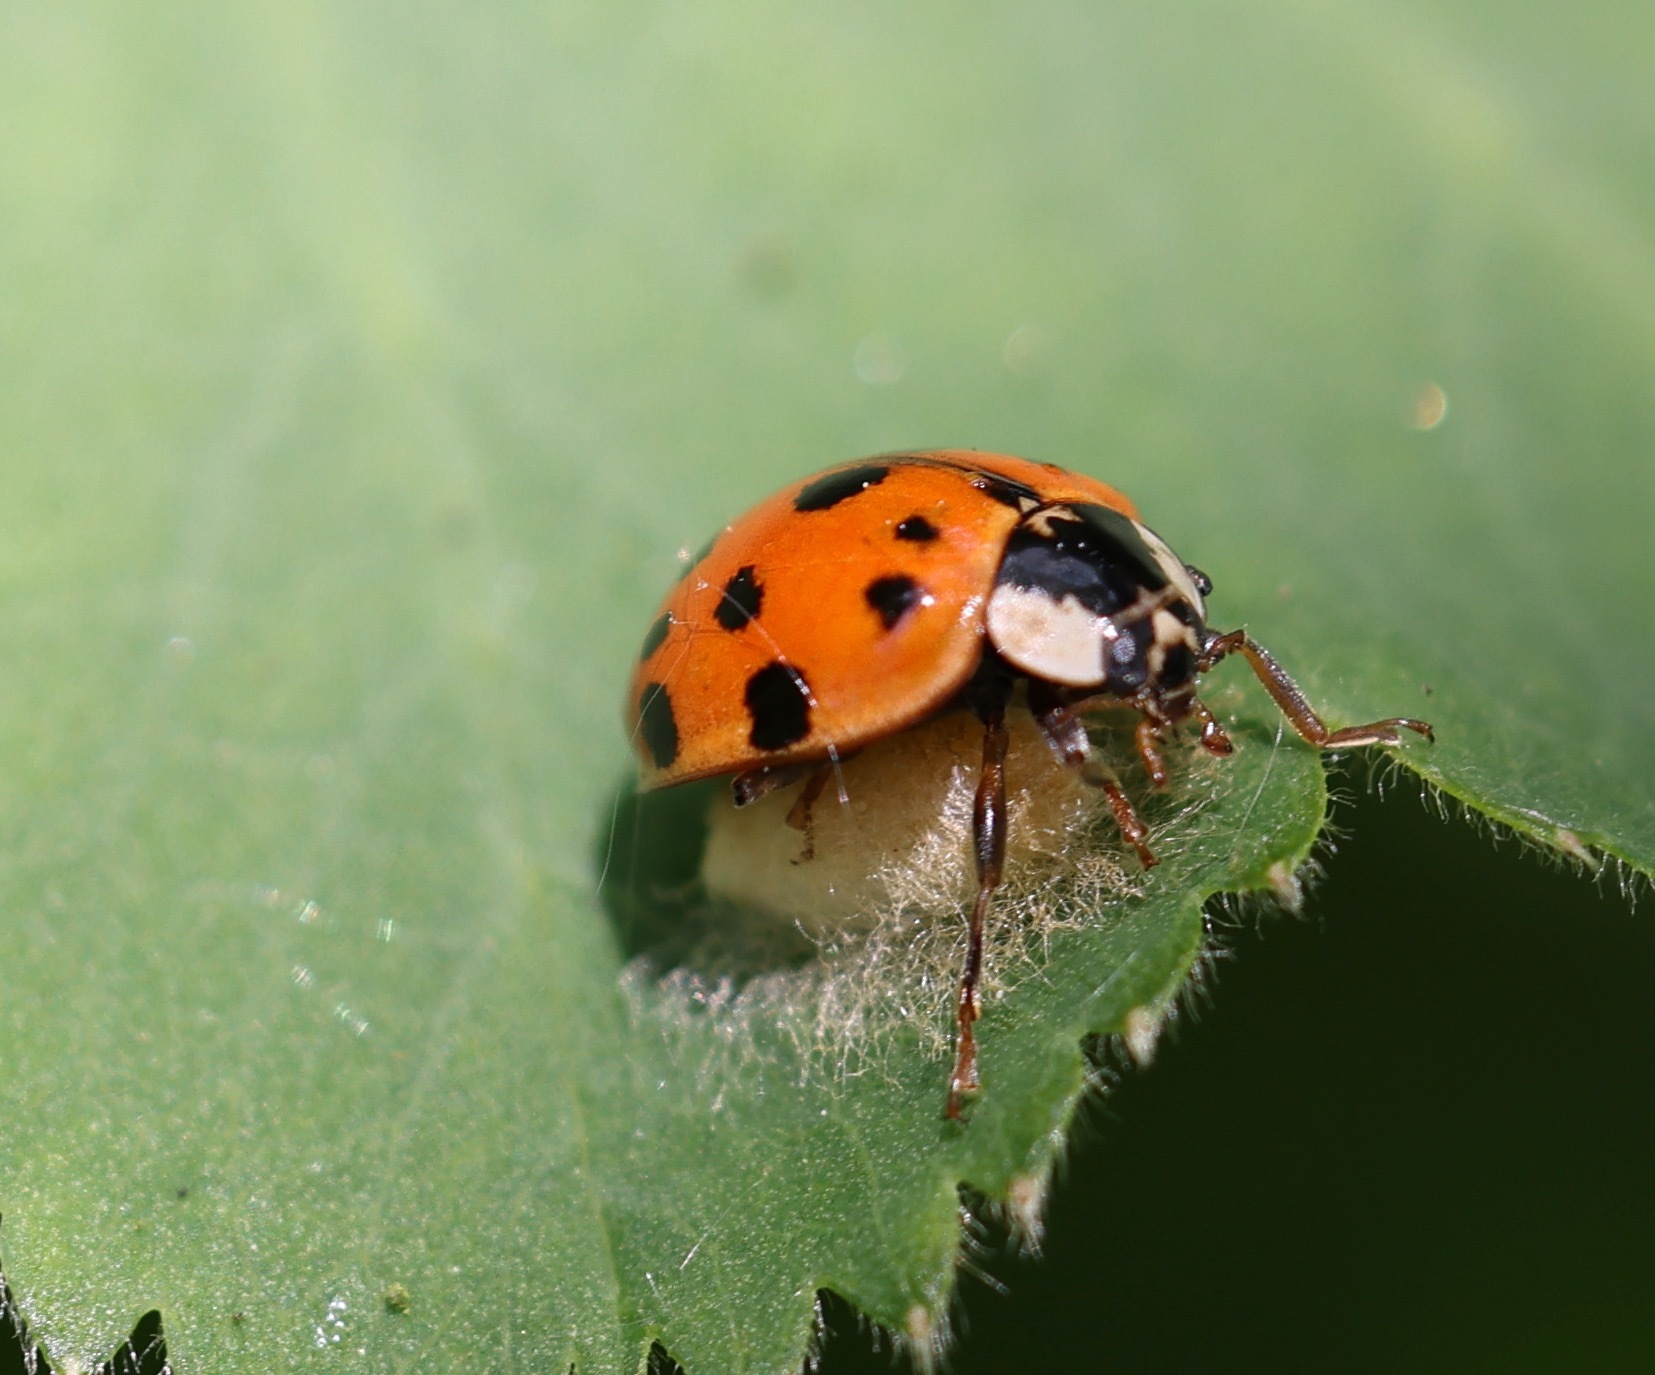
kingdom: Viruses
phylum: Pisuviricota
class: Pisoniviricetes
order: Picornavirales
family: Iflaviridae
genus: Iflavirus
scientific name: Iflavirus dinococcinellae
